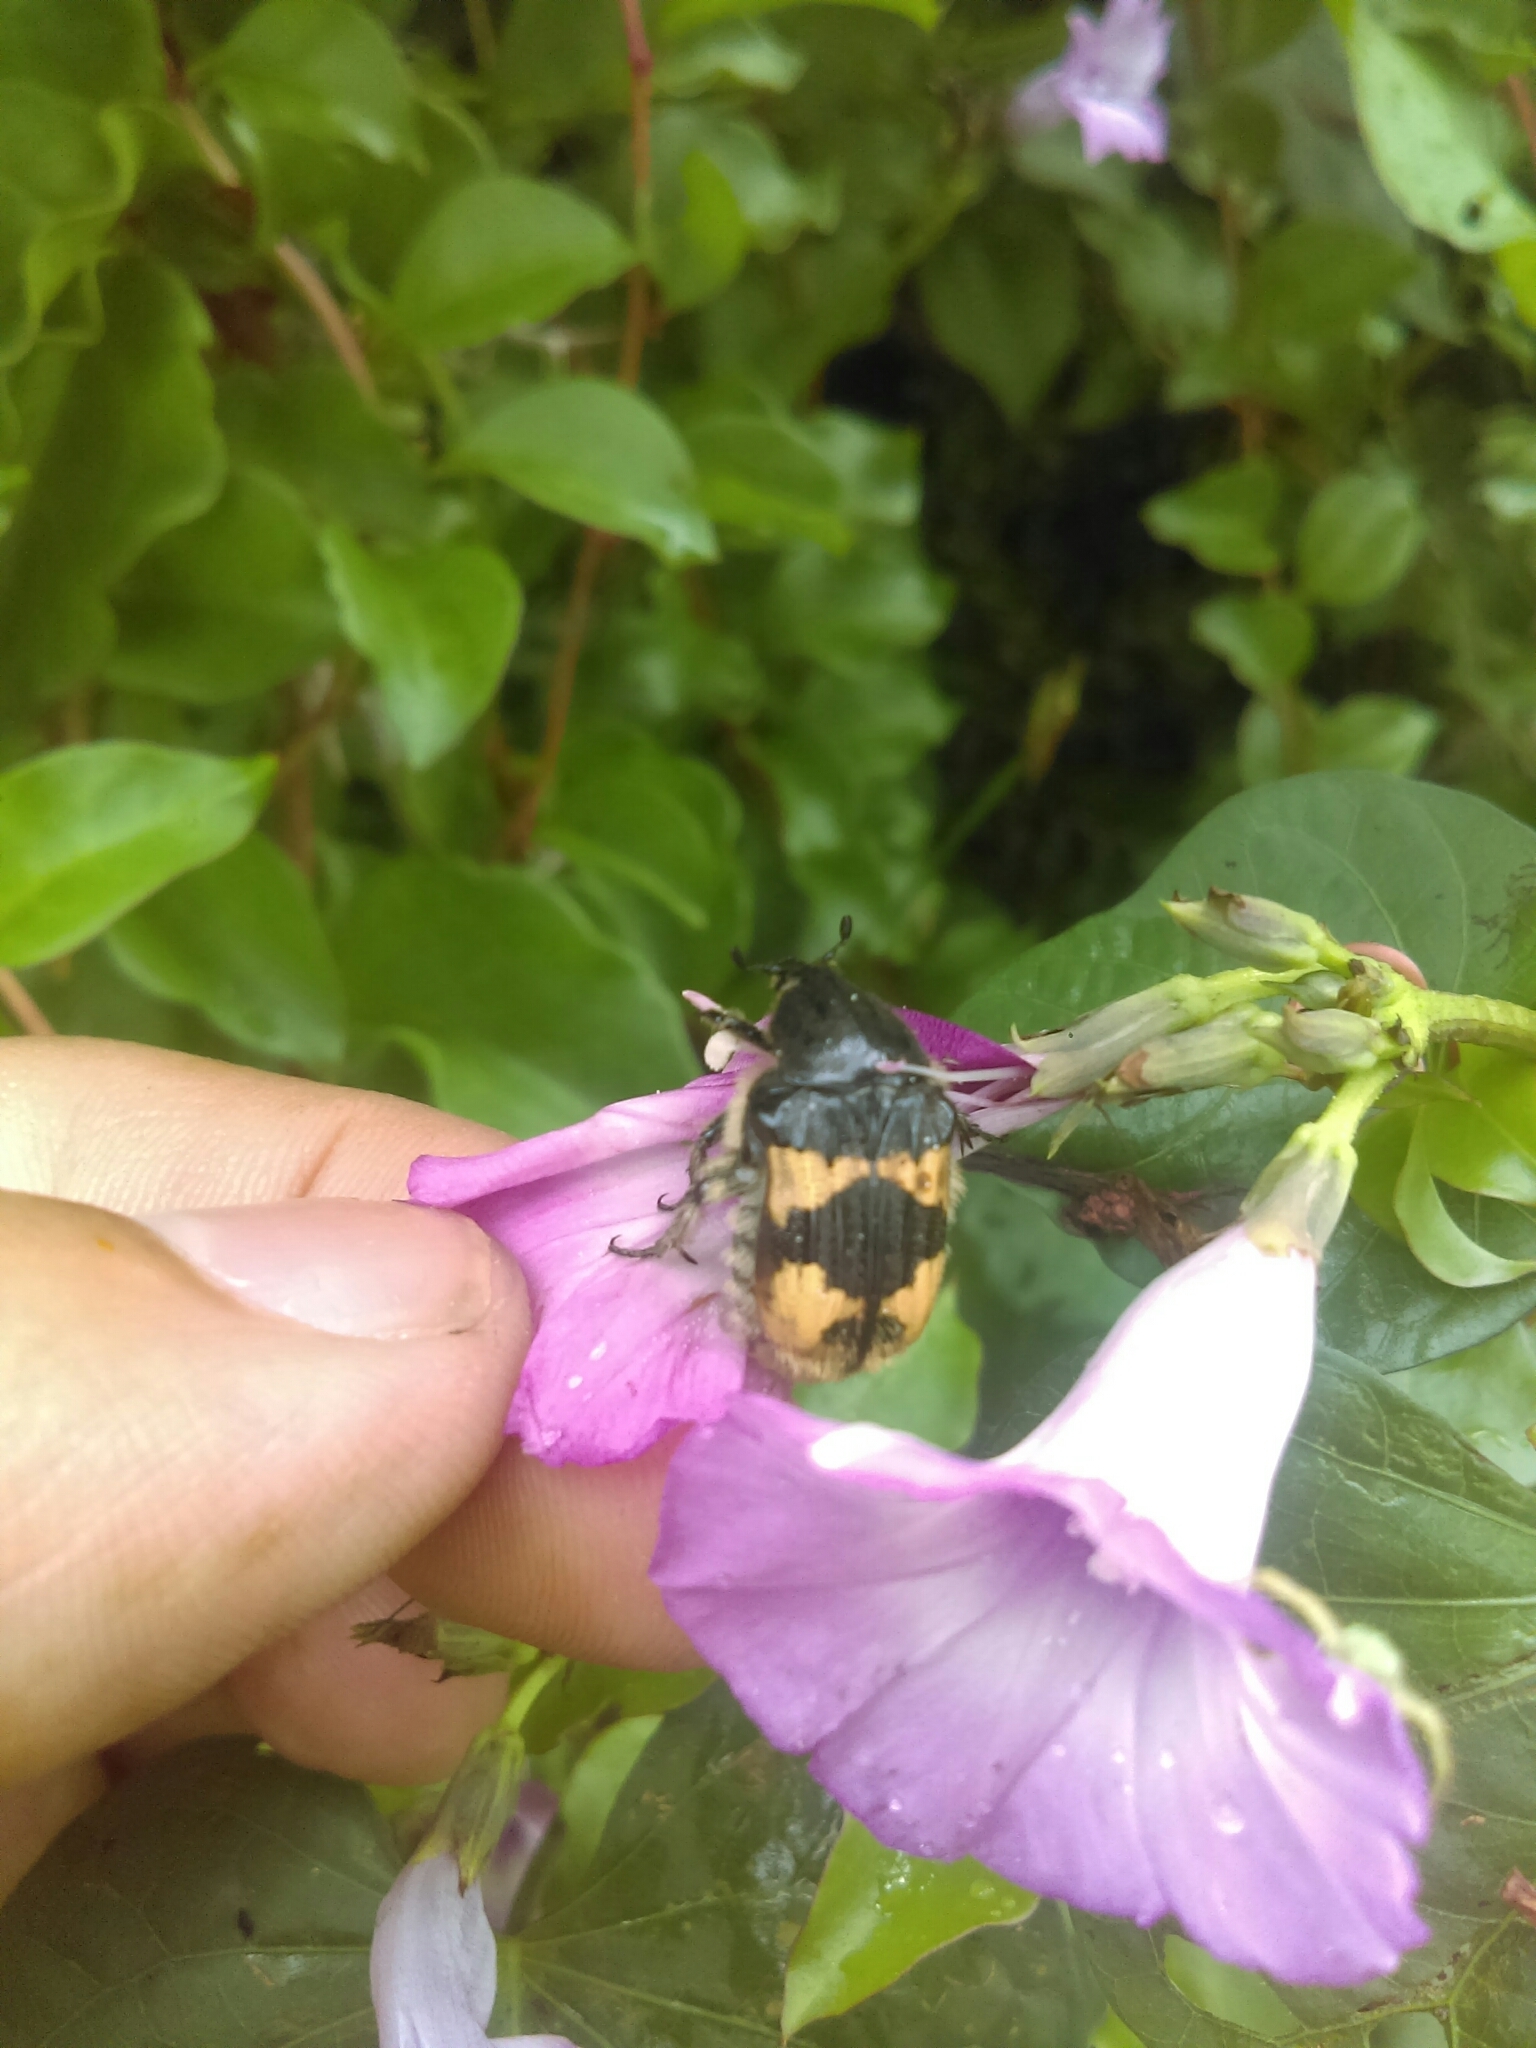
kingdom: Animalia
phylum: Arthropoda
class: Insecta
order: Coleoptera
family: Scarabaeidae
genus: Euphoria
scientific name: Euphoria basalis
